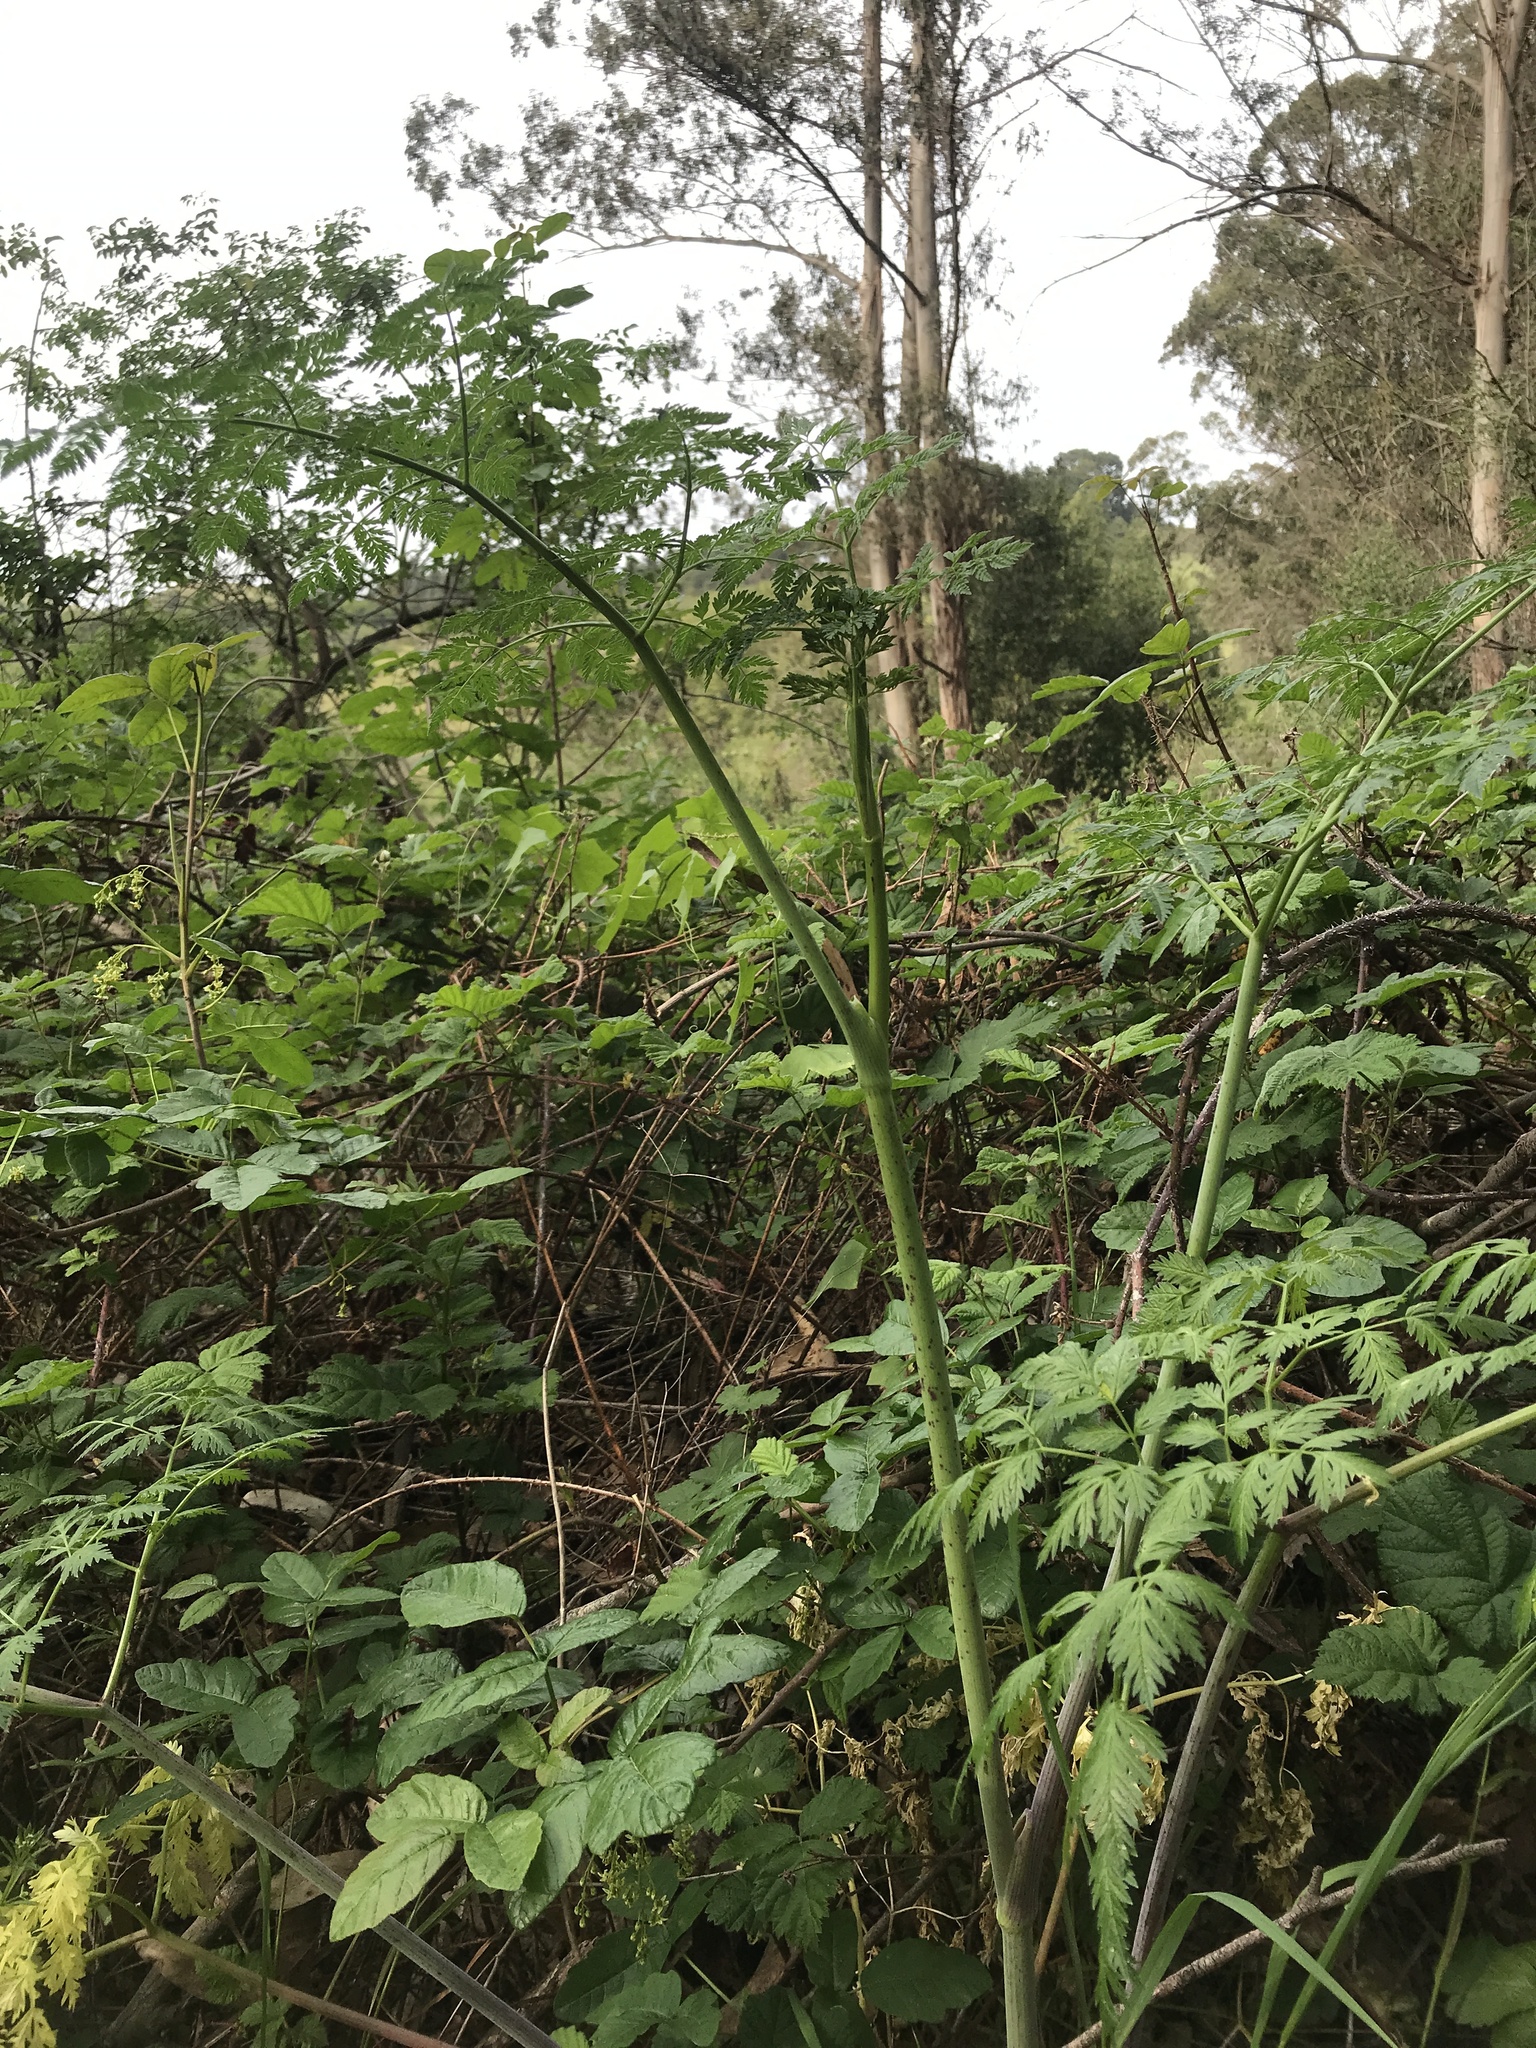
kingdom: Plantae
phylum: Tracheophyta
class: Magnoliopsida
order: Apiales
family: Apiaceae
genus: Conium
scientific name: Conium maculatum
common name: Hemlock
